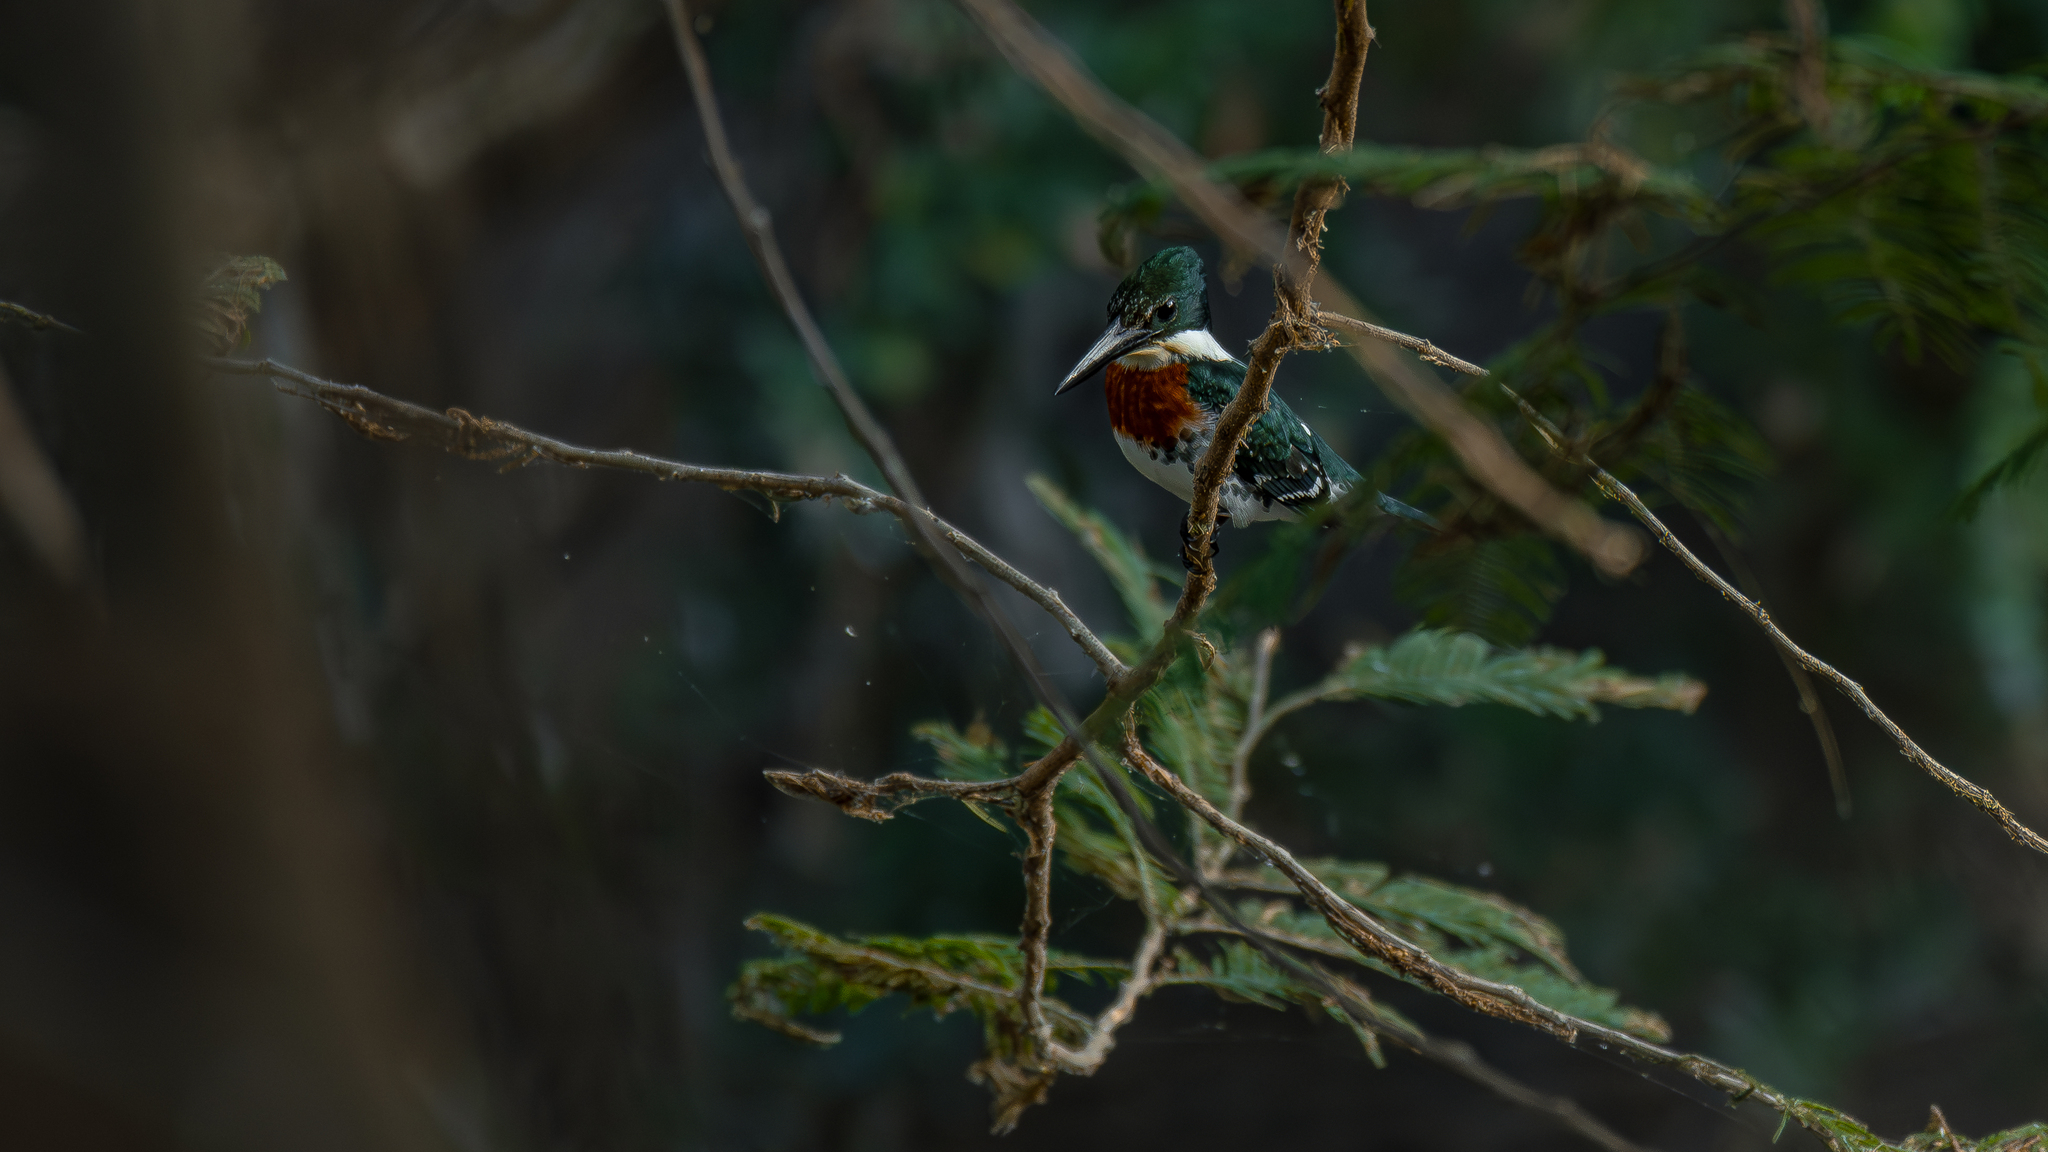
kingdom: Animalia
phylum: Chordata
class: Aves
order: Coraciiformes
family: Alcedinidae
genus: Chloroceryle
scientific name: Chloroceryle americana
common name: Green kingfisher
